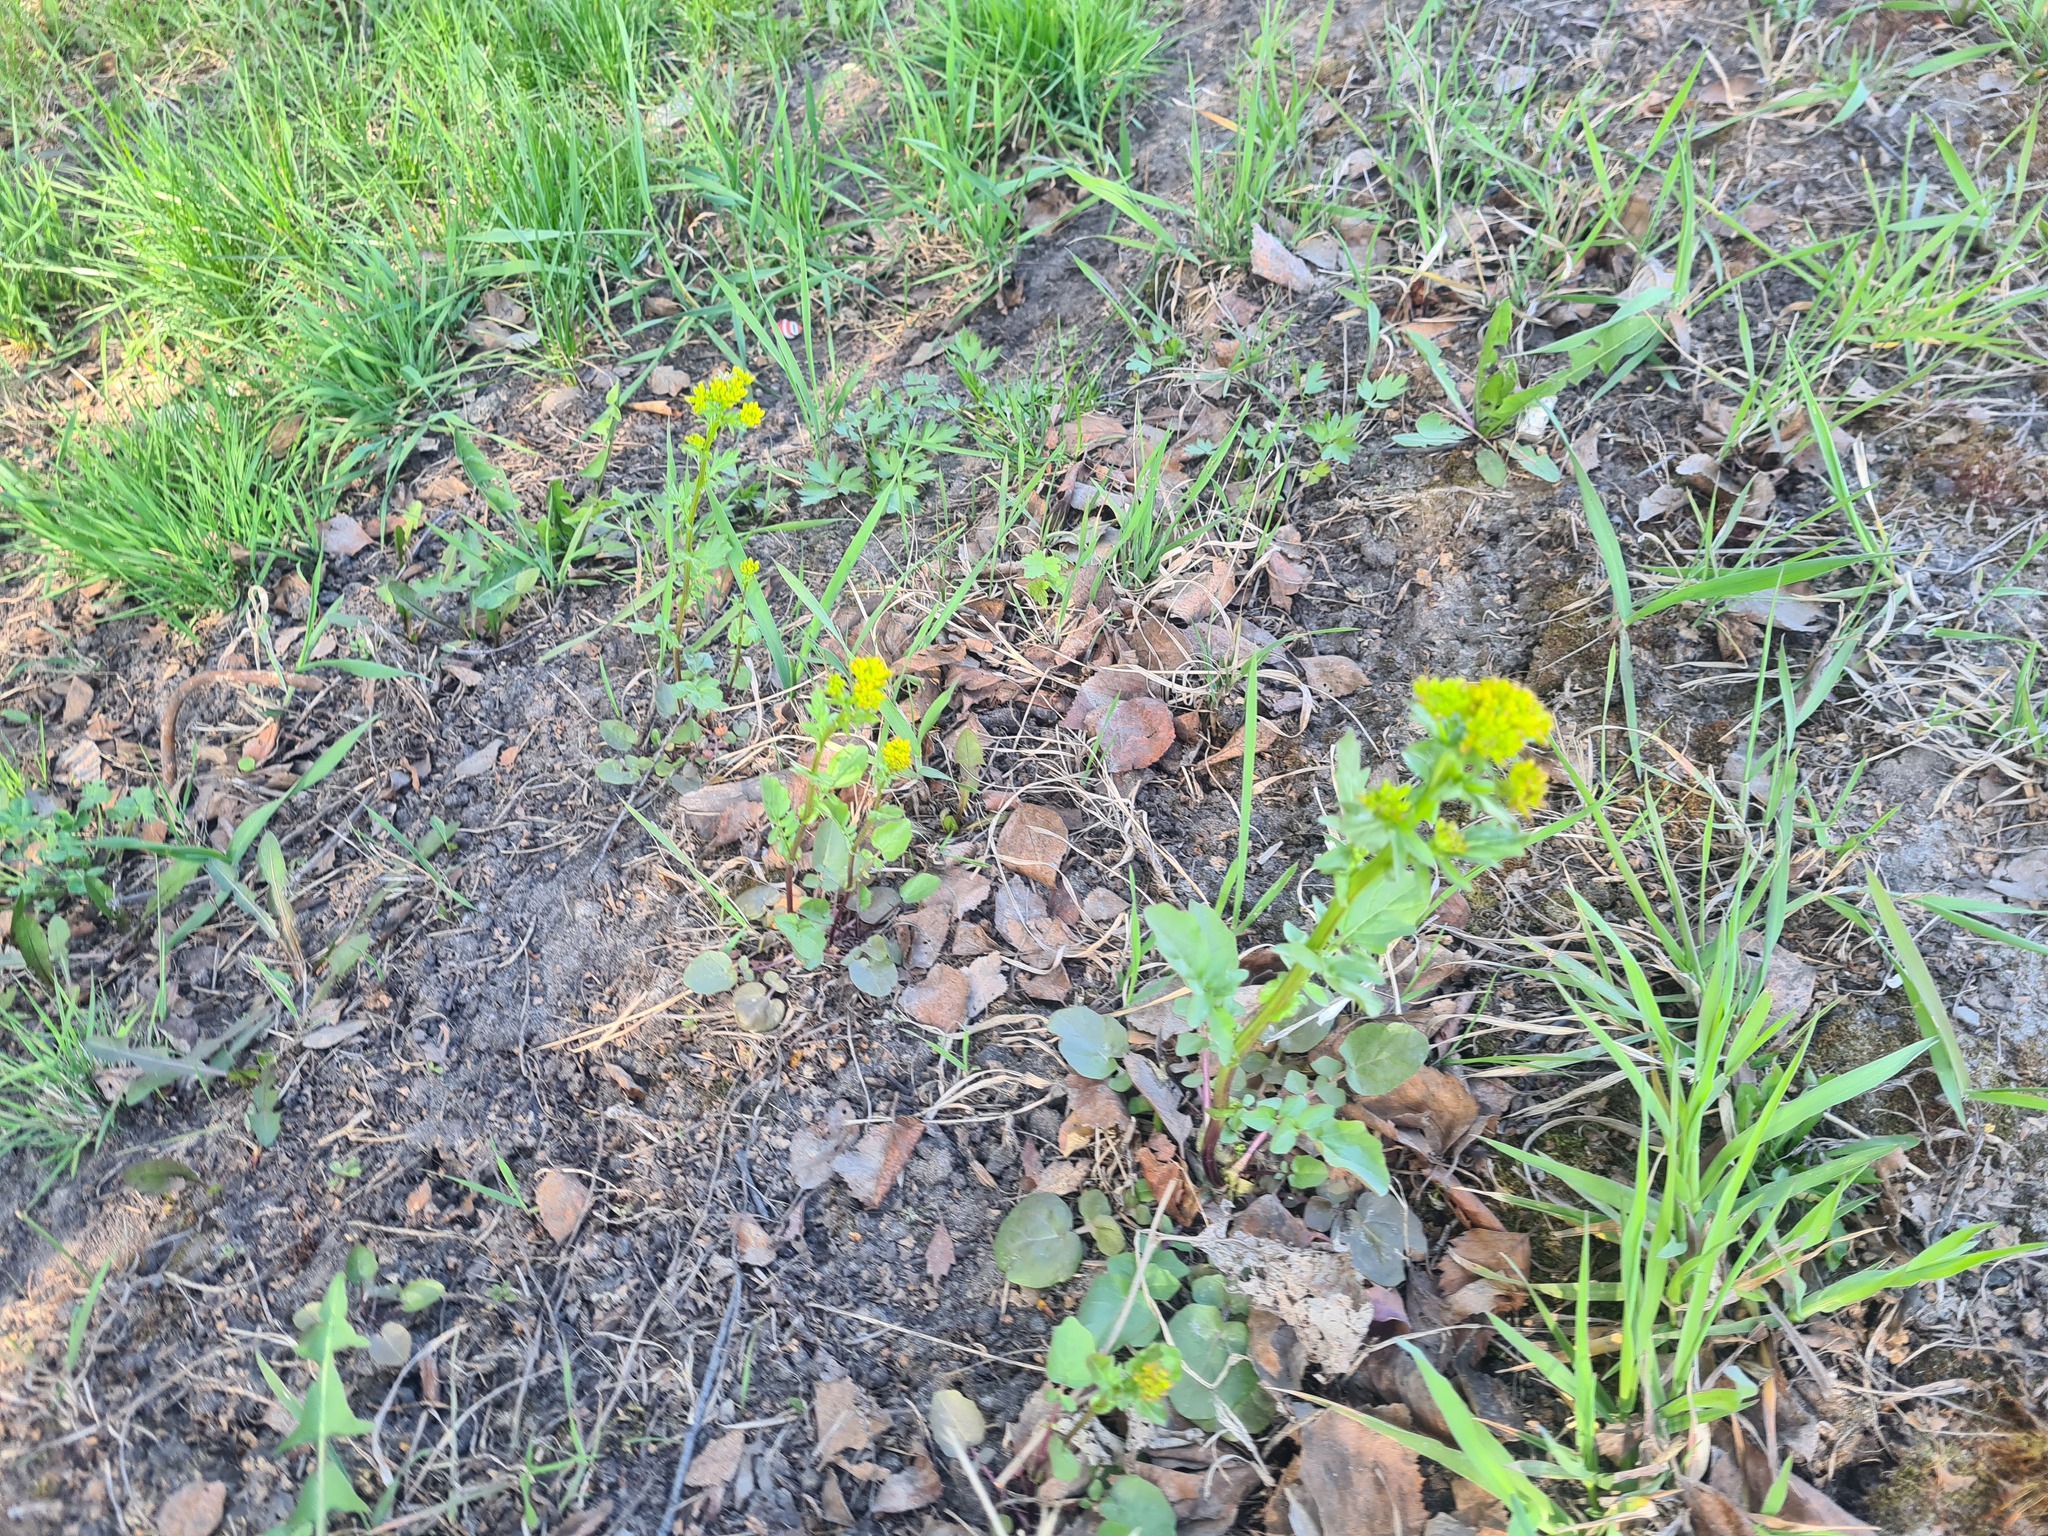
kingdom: Plantae
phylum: Tracheophyta
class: Magnoliopsida
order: Brassicales
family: Brassicaceae
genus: Barbarea
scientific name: Barbarea vulgaris
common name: Cressy-greens
